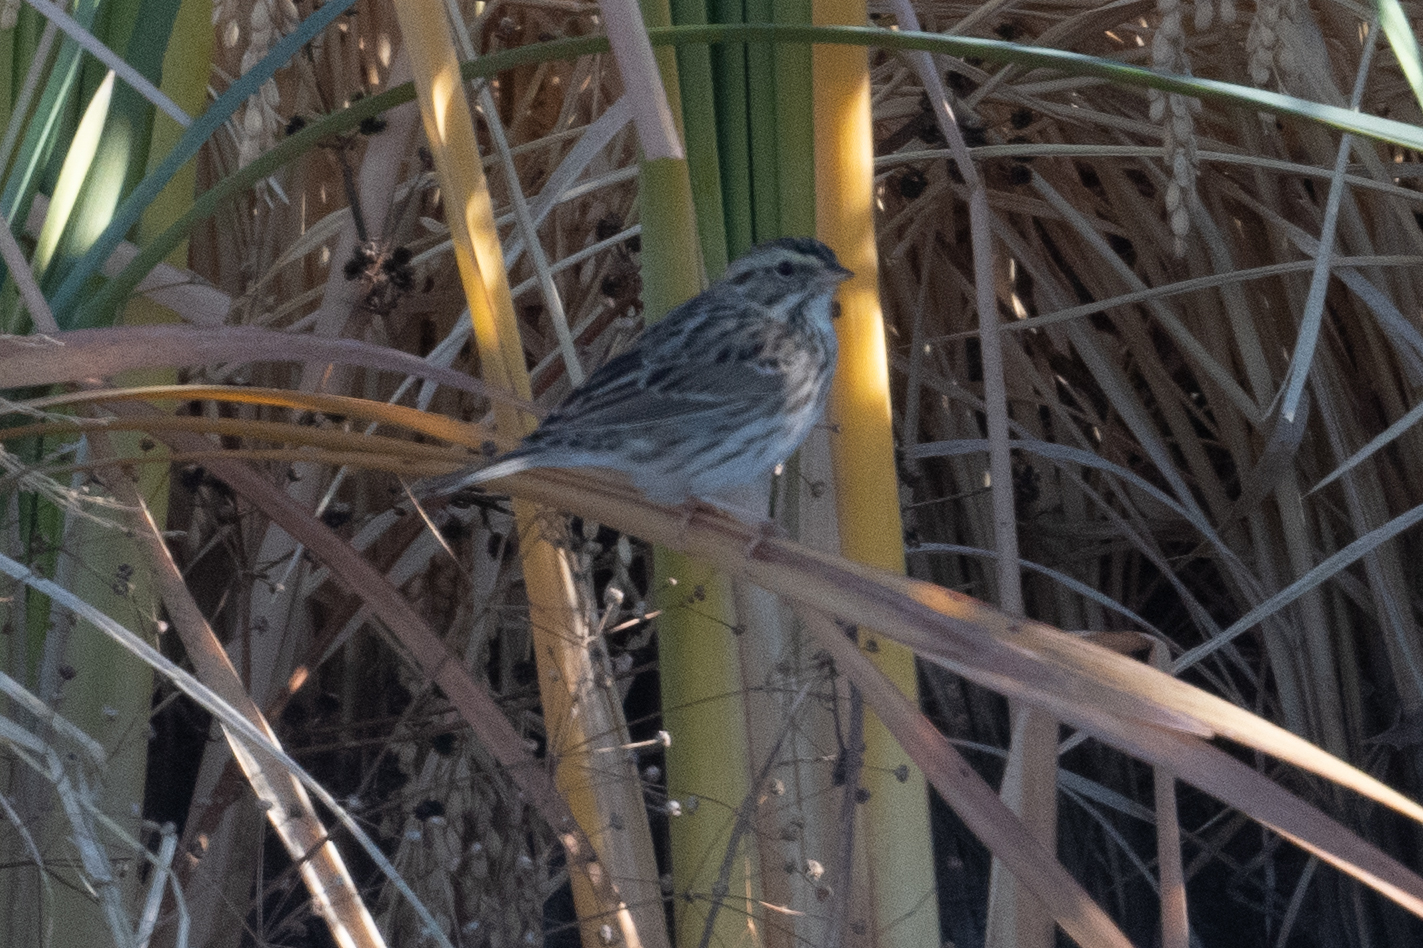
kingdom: Animalia
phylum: Chordata
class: Aves
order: Passeriformes
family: Passerellidae
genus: Passerculus
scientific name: Passerculus sandwichensis
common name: Savannah sparrow
